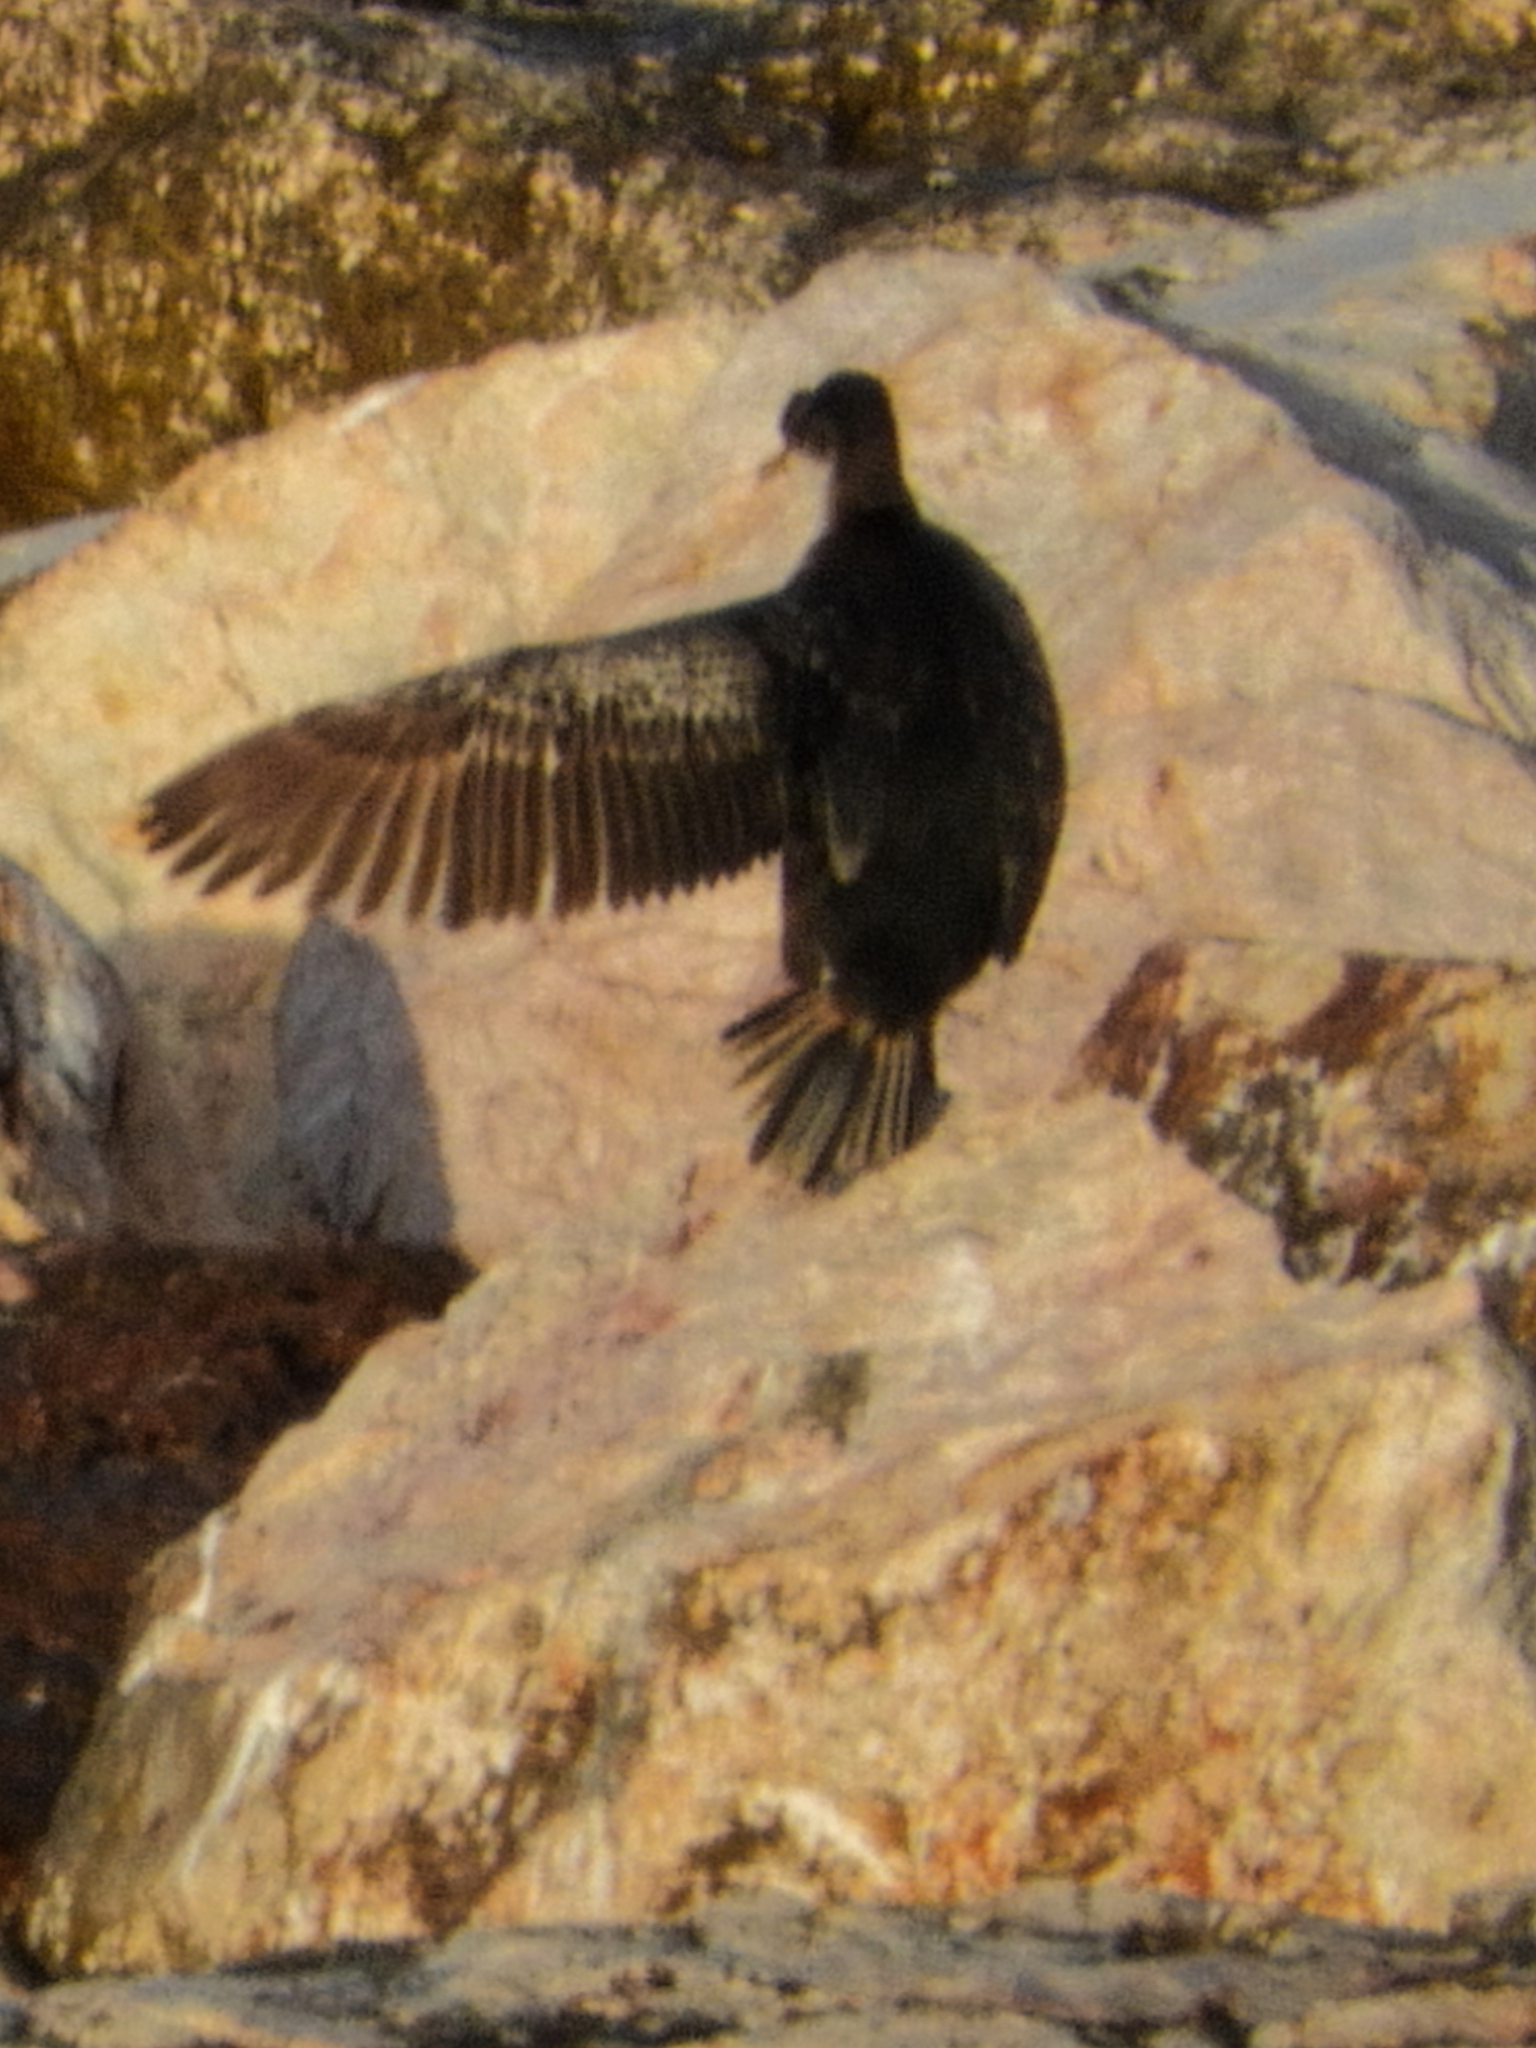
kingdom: Animalia
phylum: Chordata
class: Aves
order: Suliformes
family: Phalacrocoracidae
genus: Phalacrocorax
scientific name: Phalacrocorax aristotelis
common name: European shag
